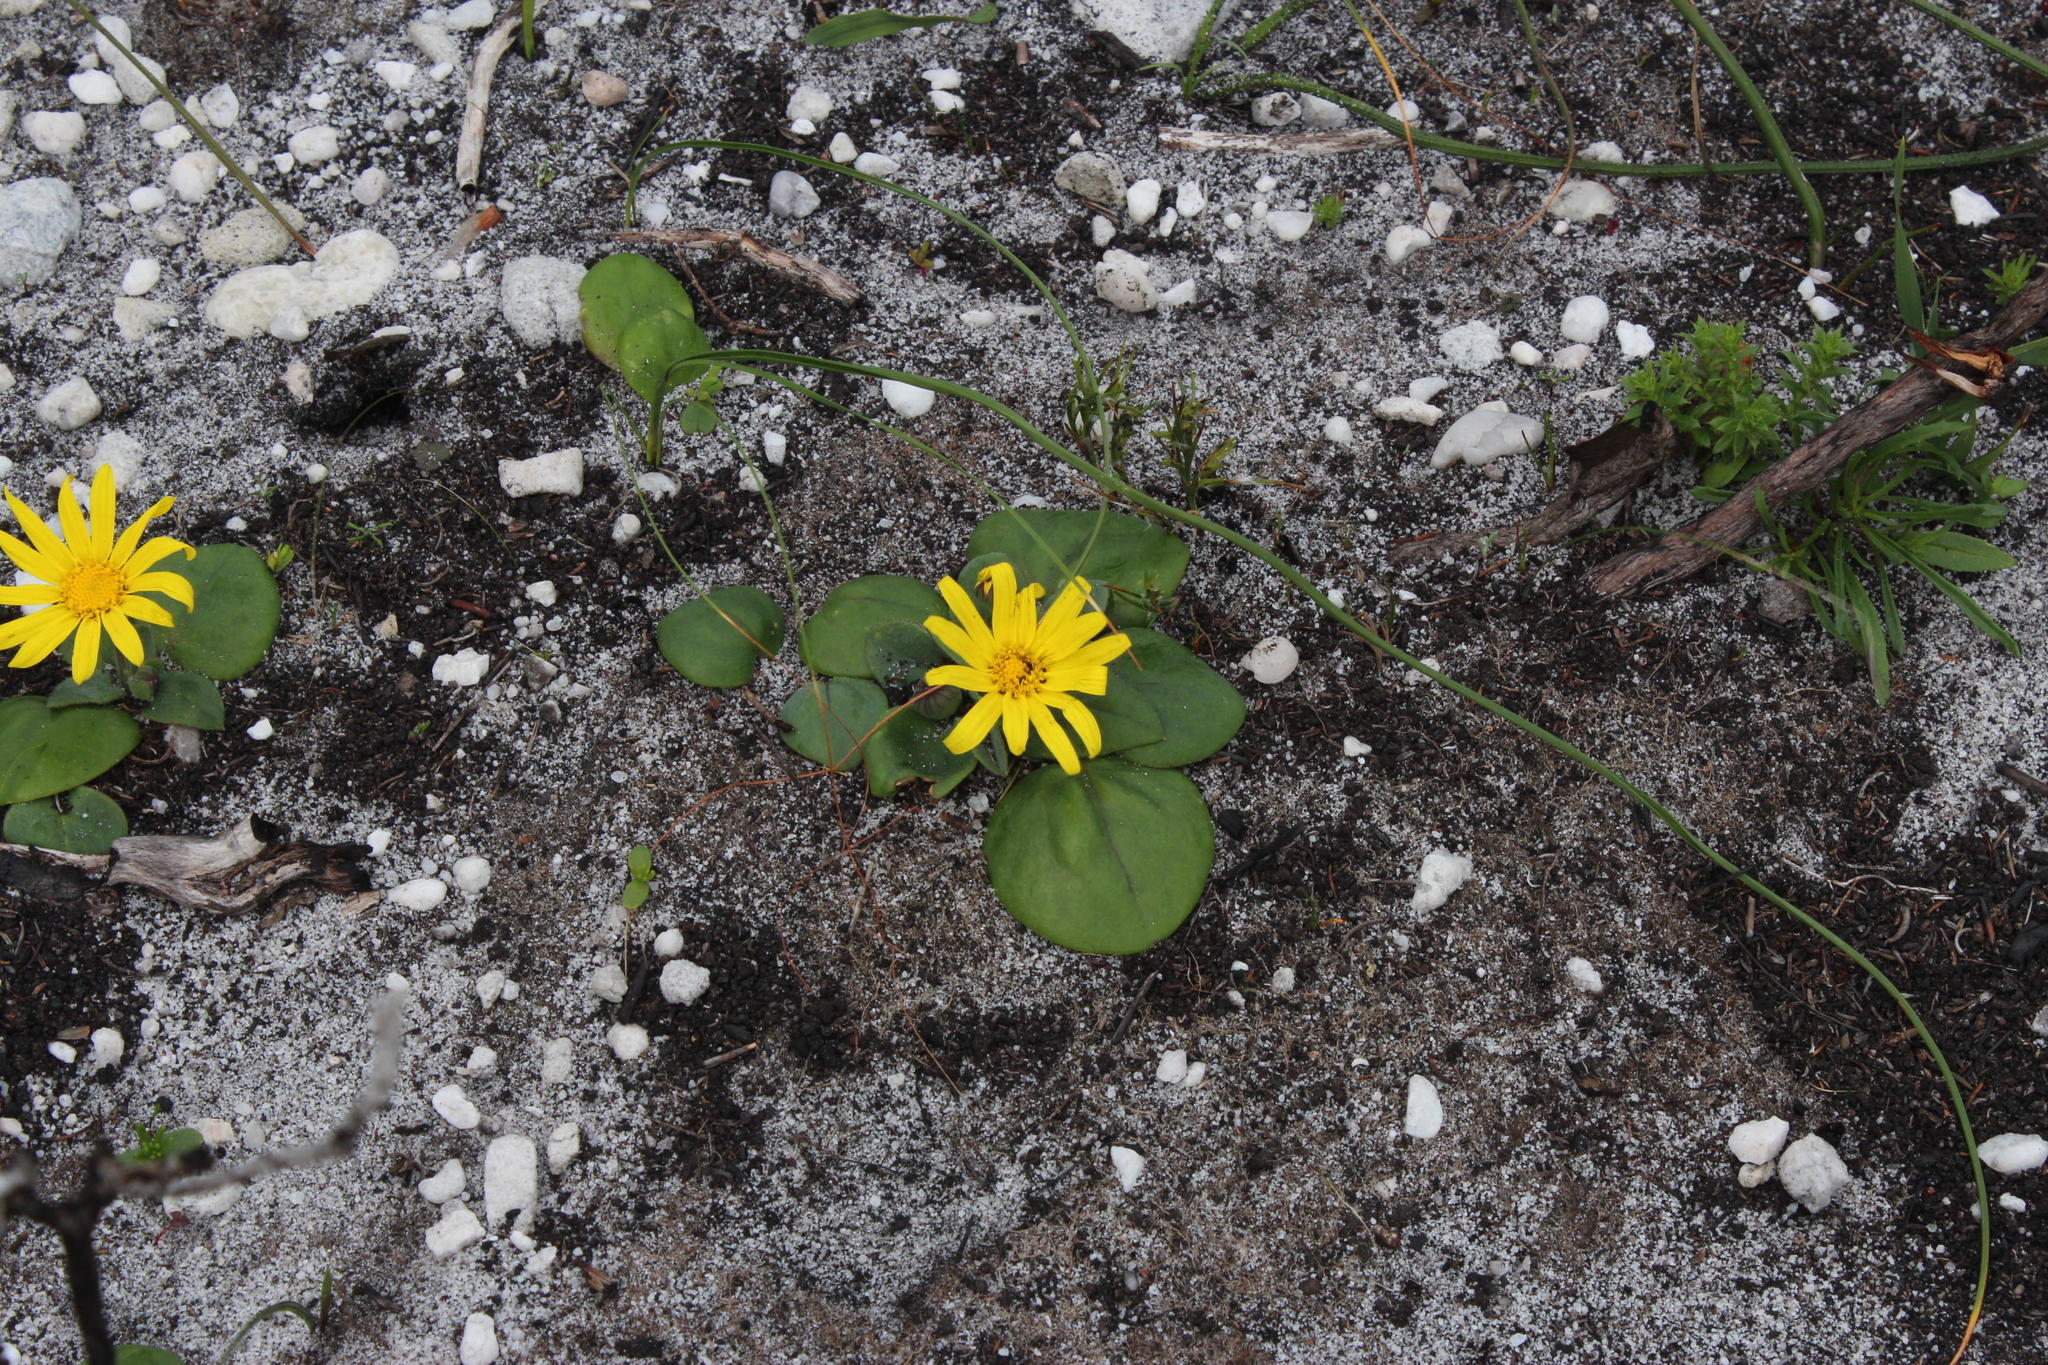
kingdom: Plantae
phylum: Tracheophyta
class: Magnoliopsida
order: Asterales
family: Asteraceae
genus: Othonna
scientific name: Othonna bulbosa
